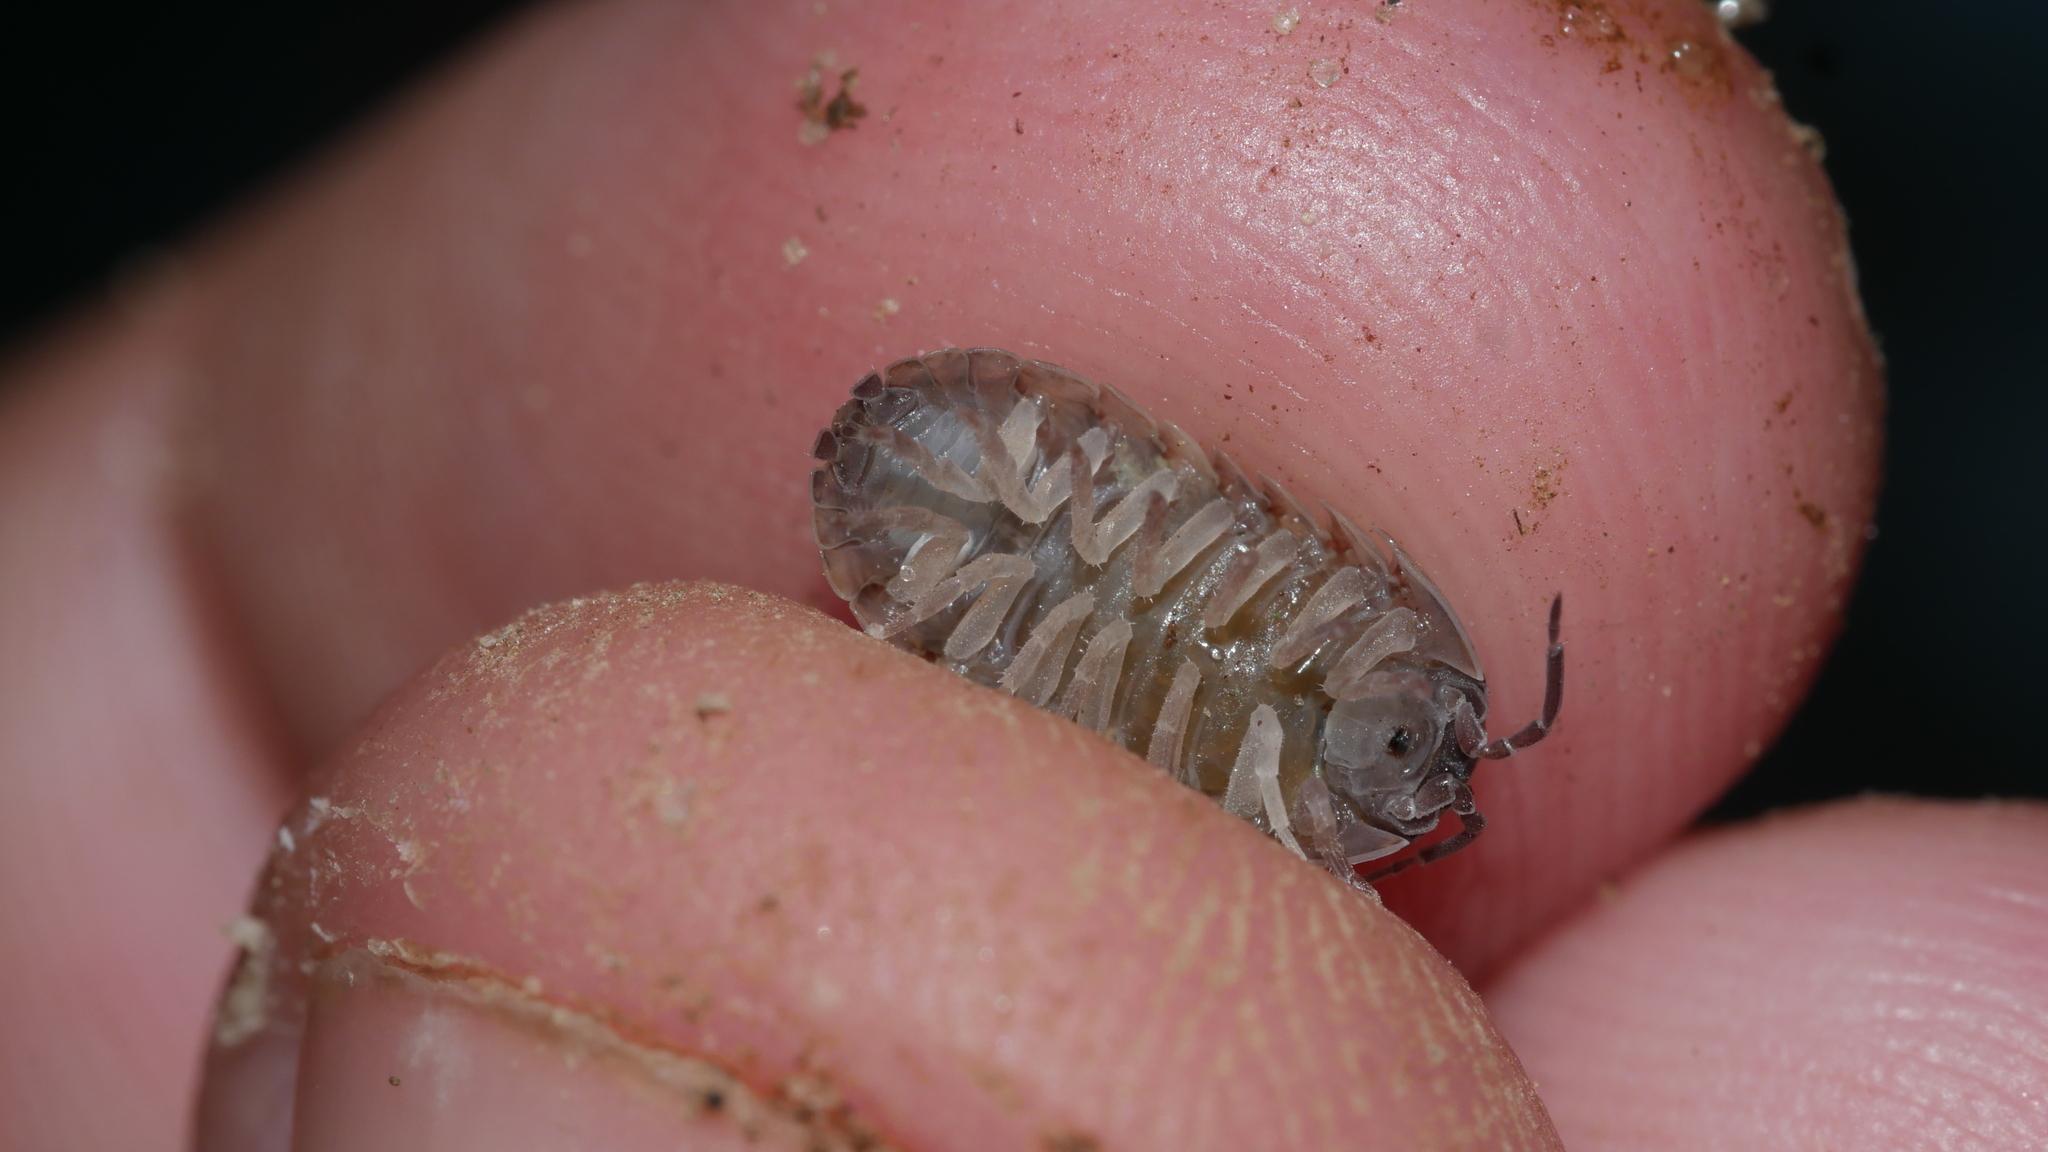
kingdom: Animalia
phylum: Arthropoda
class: Malacostraca
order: Isopoda
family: Armadillidiidae
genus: Armadillidium
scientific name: Armadillidium vulgare
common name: Common pill woodlouse
